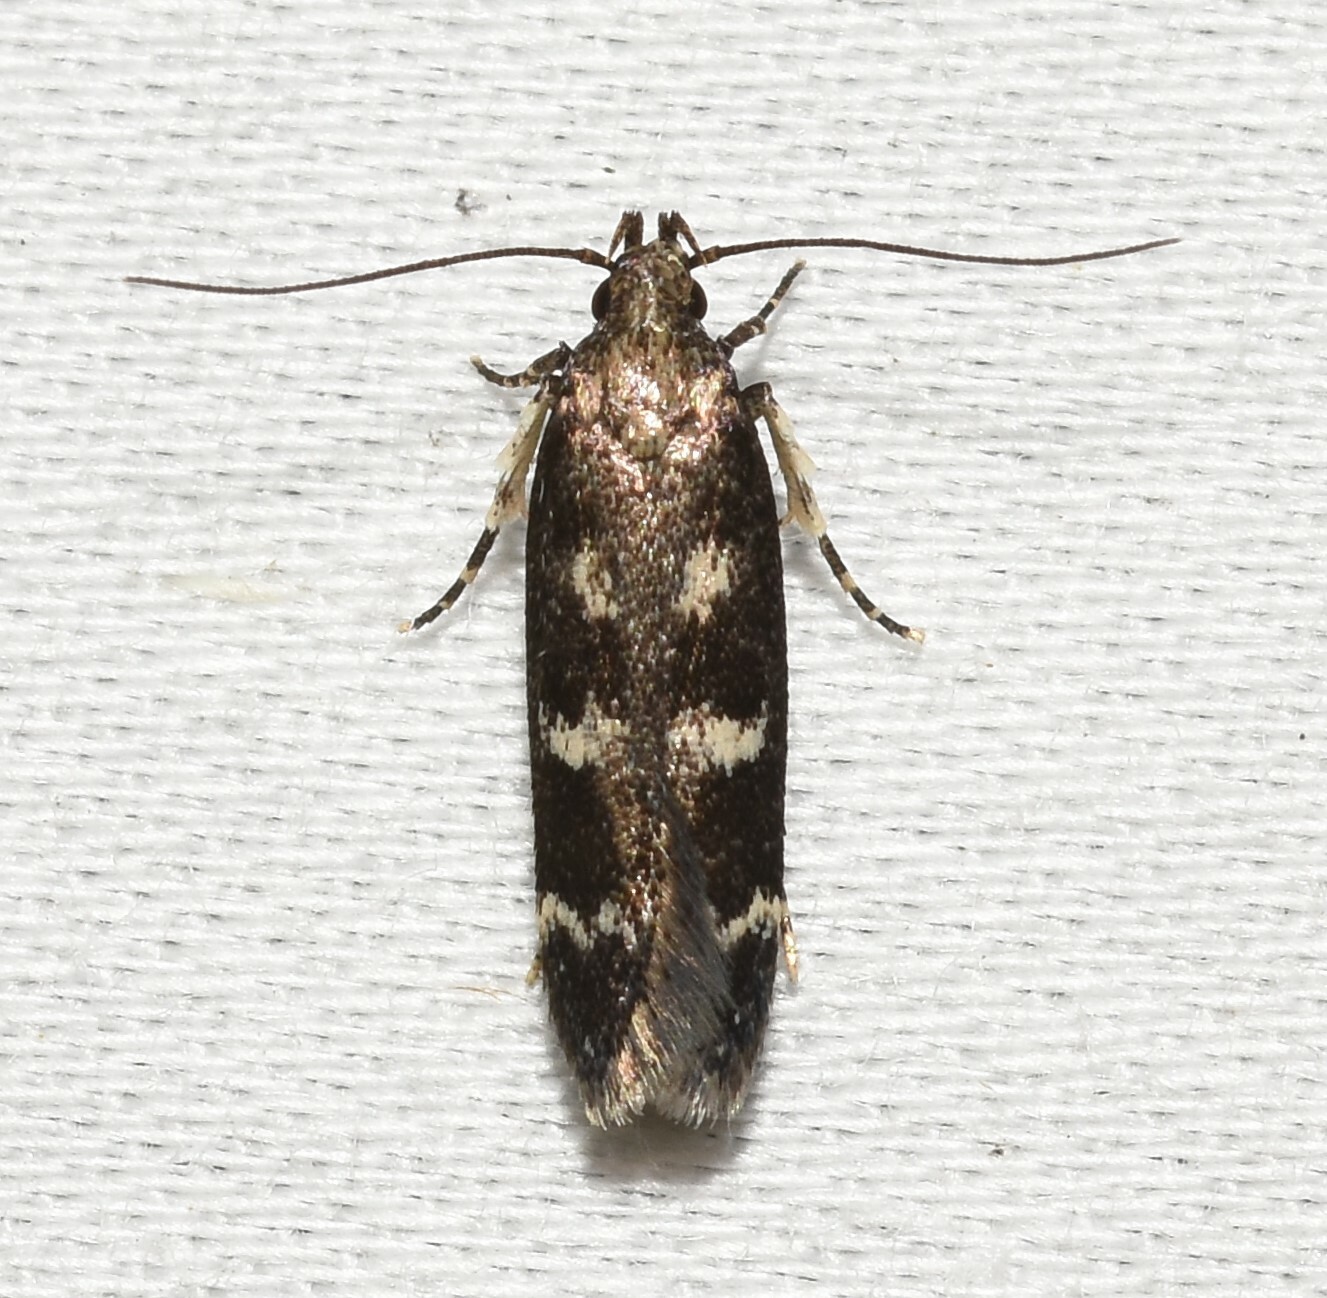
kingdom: Animalia
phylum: Arthropoda
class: Insecta
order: Lepidoptera
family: Gelechiidae
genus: Fascista
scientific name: Fascista bimaculella
